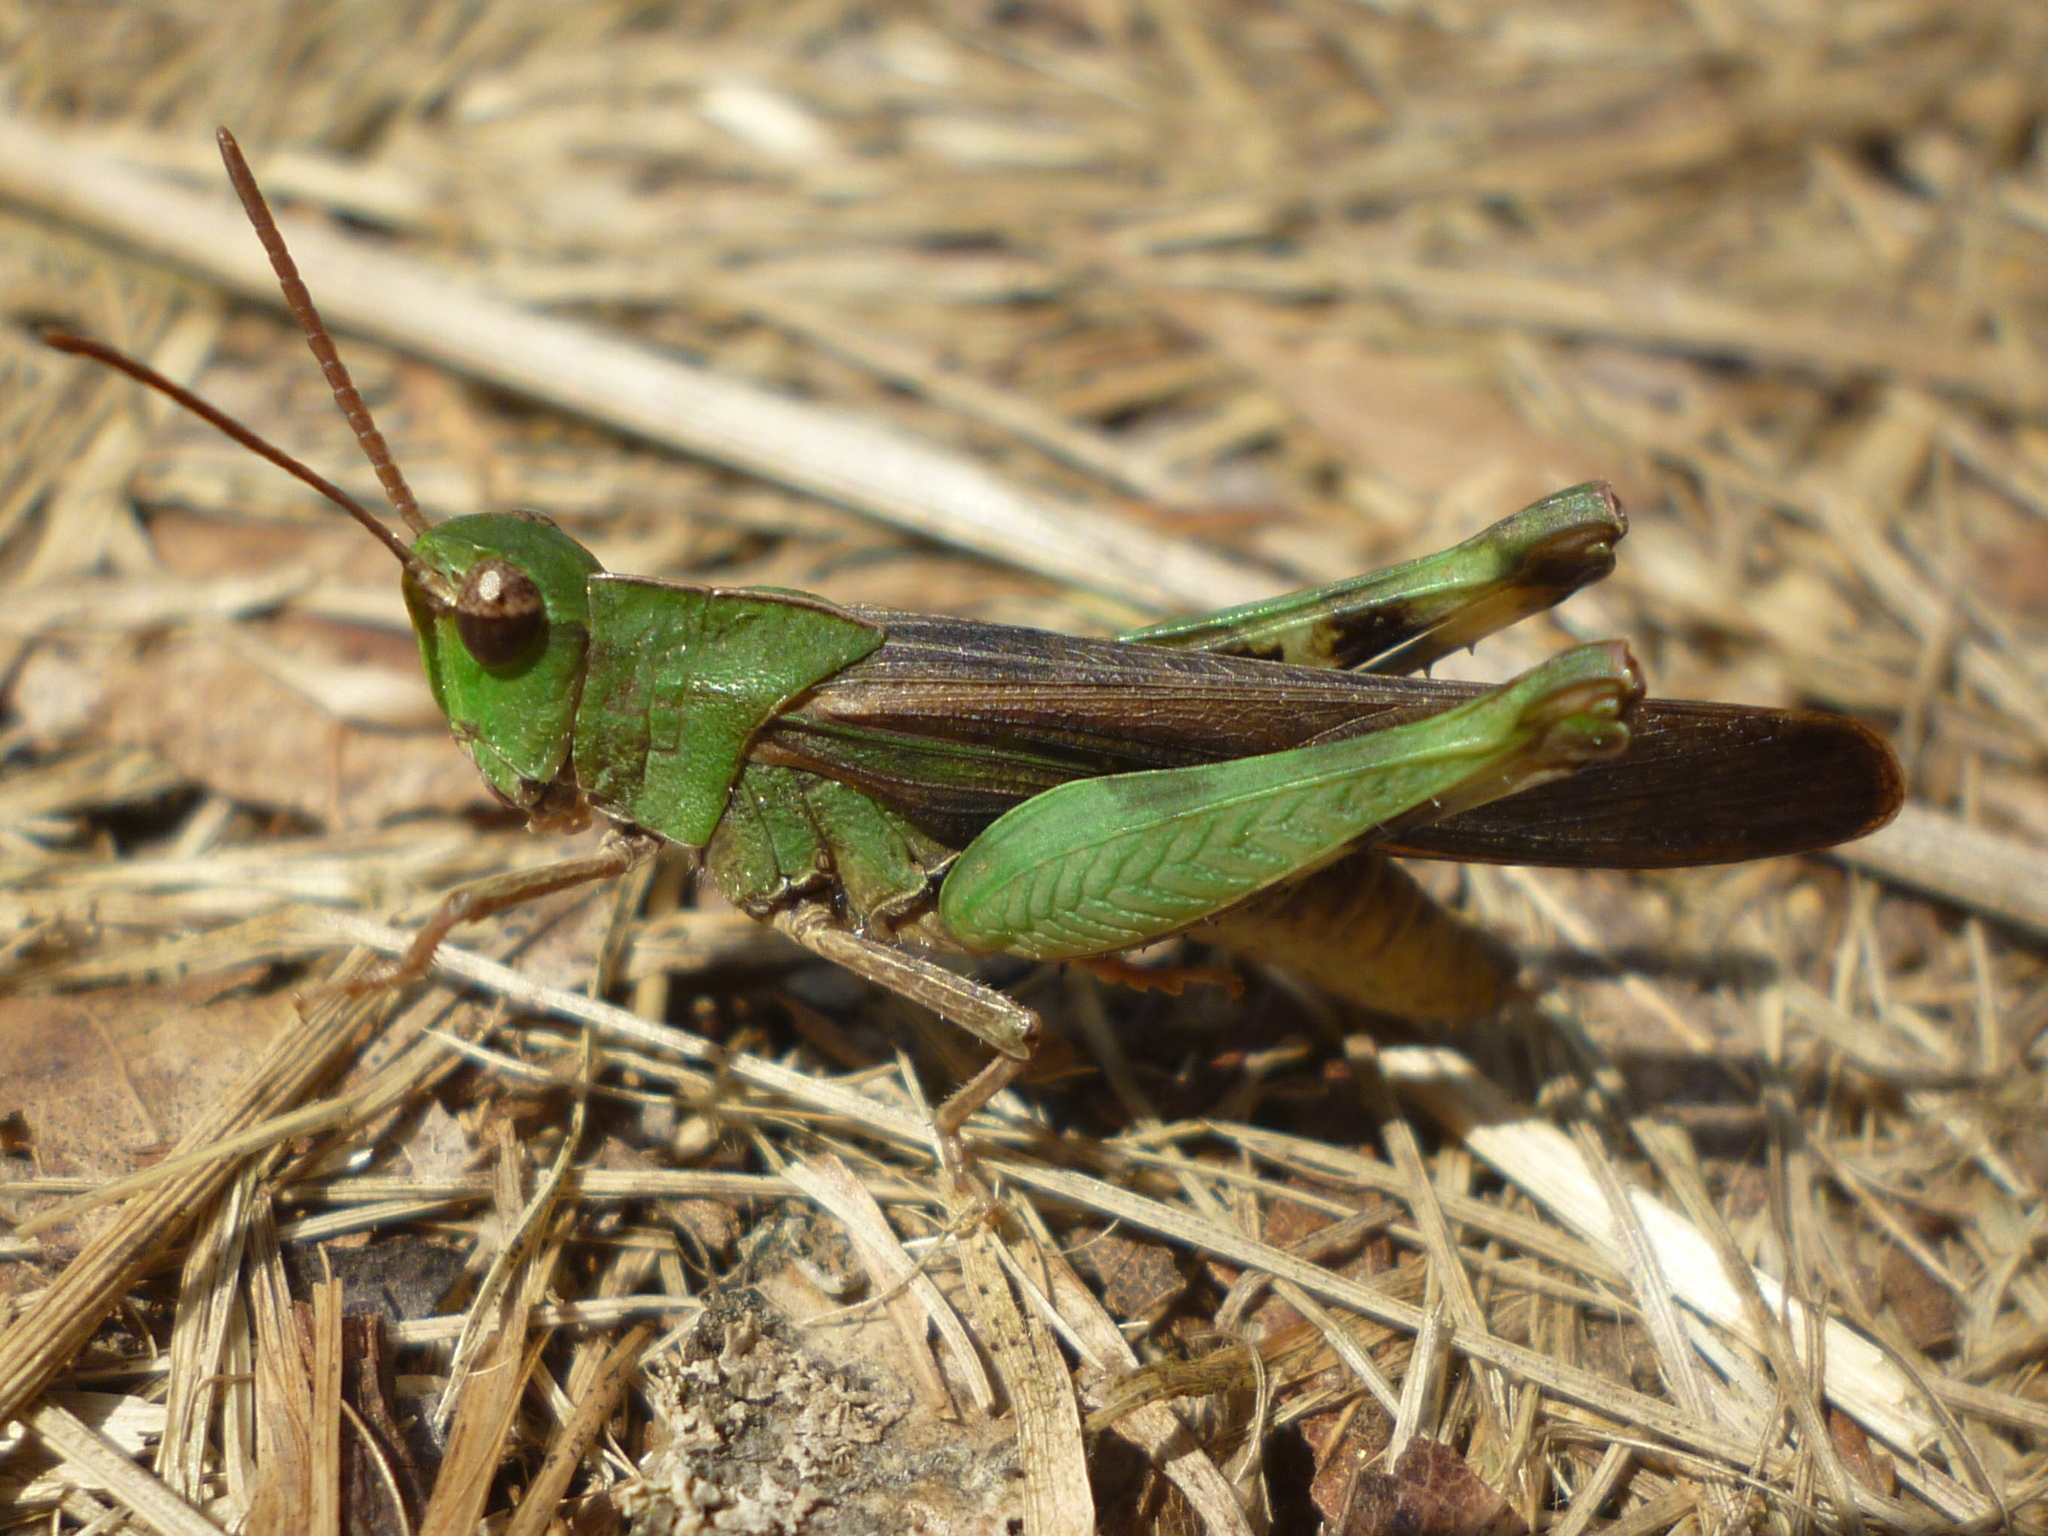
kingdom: Animalia
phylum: Arthropoda
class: Insecta
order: Orthoptera
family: Acrididae
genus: Chortophaga
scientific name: Chortophaga viridifasciata
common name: Green-striped grasshopper
